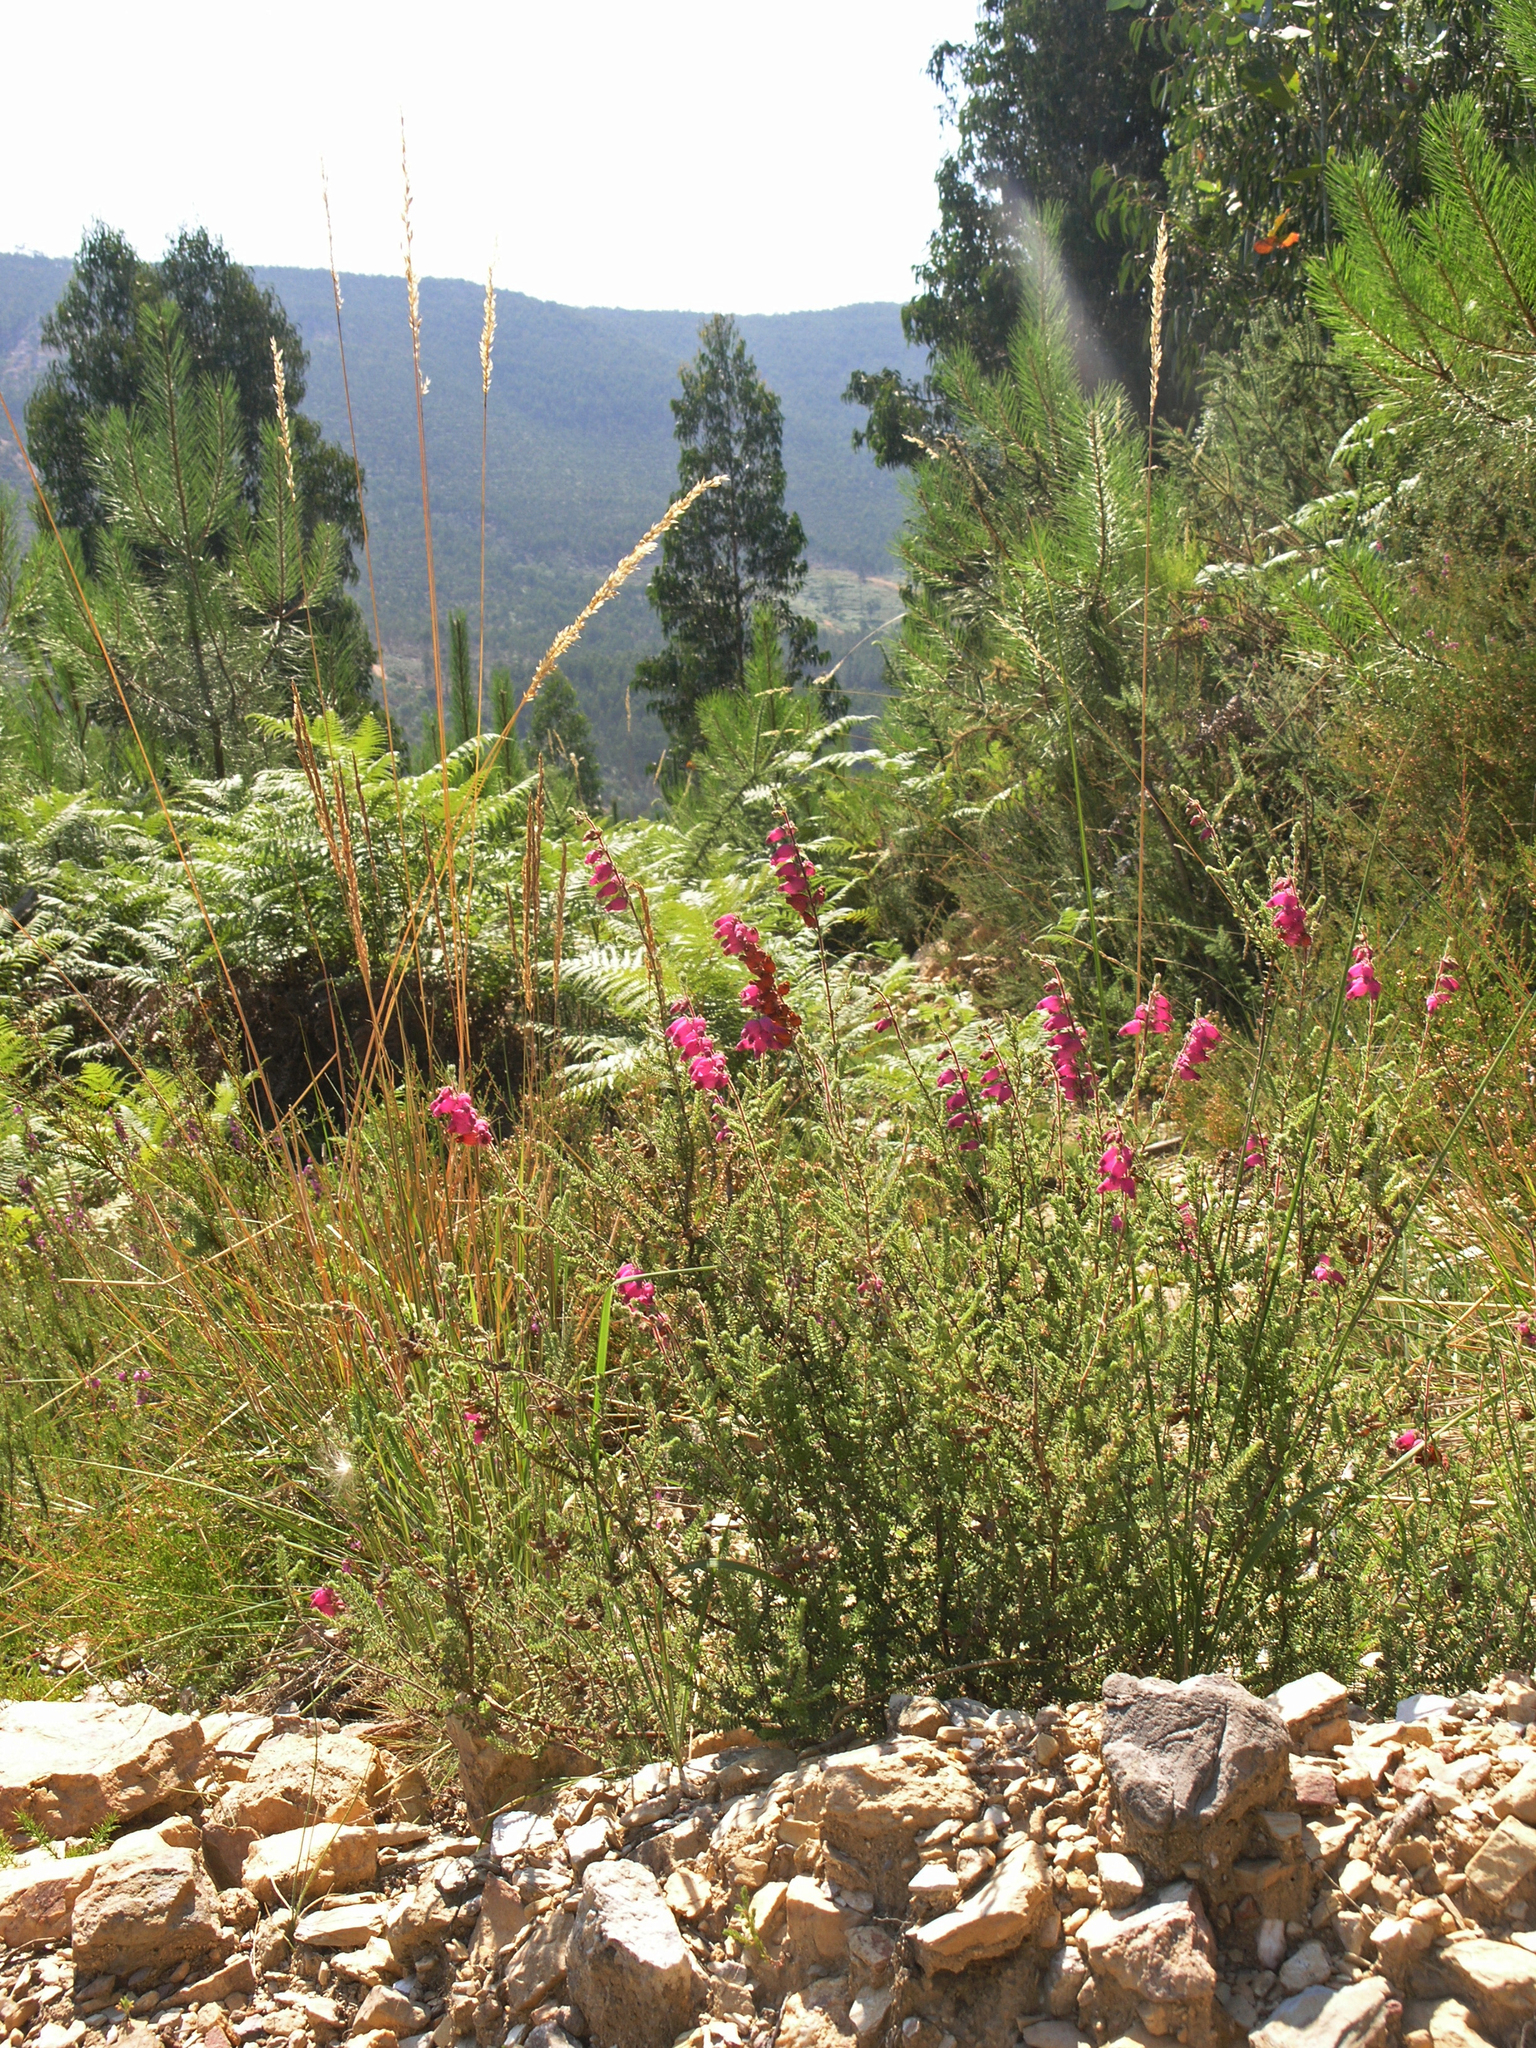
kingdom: Plantae
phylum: Tracheophyta
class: Magnoliopsida
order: Ericales
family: Ericaceae
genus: Erica
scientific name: Erica ciliaris
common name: Dorset heath
